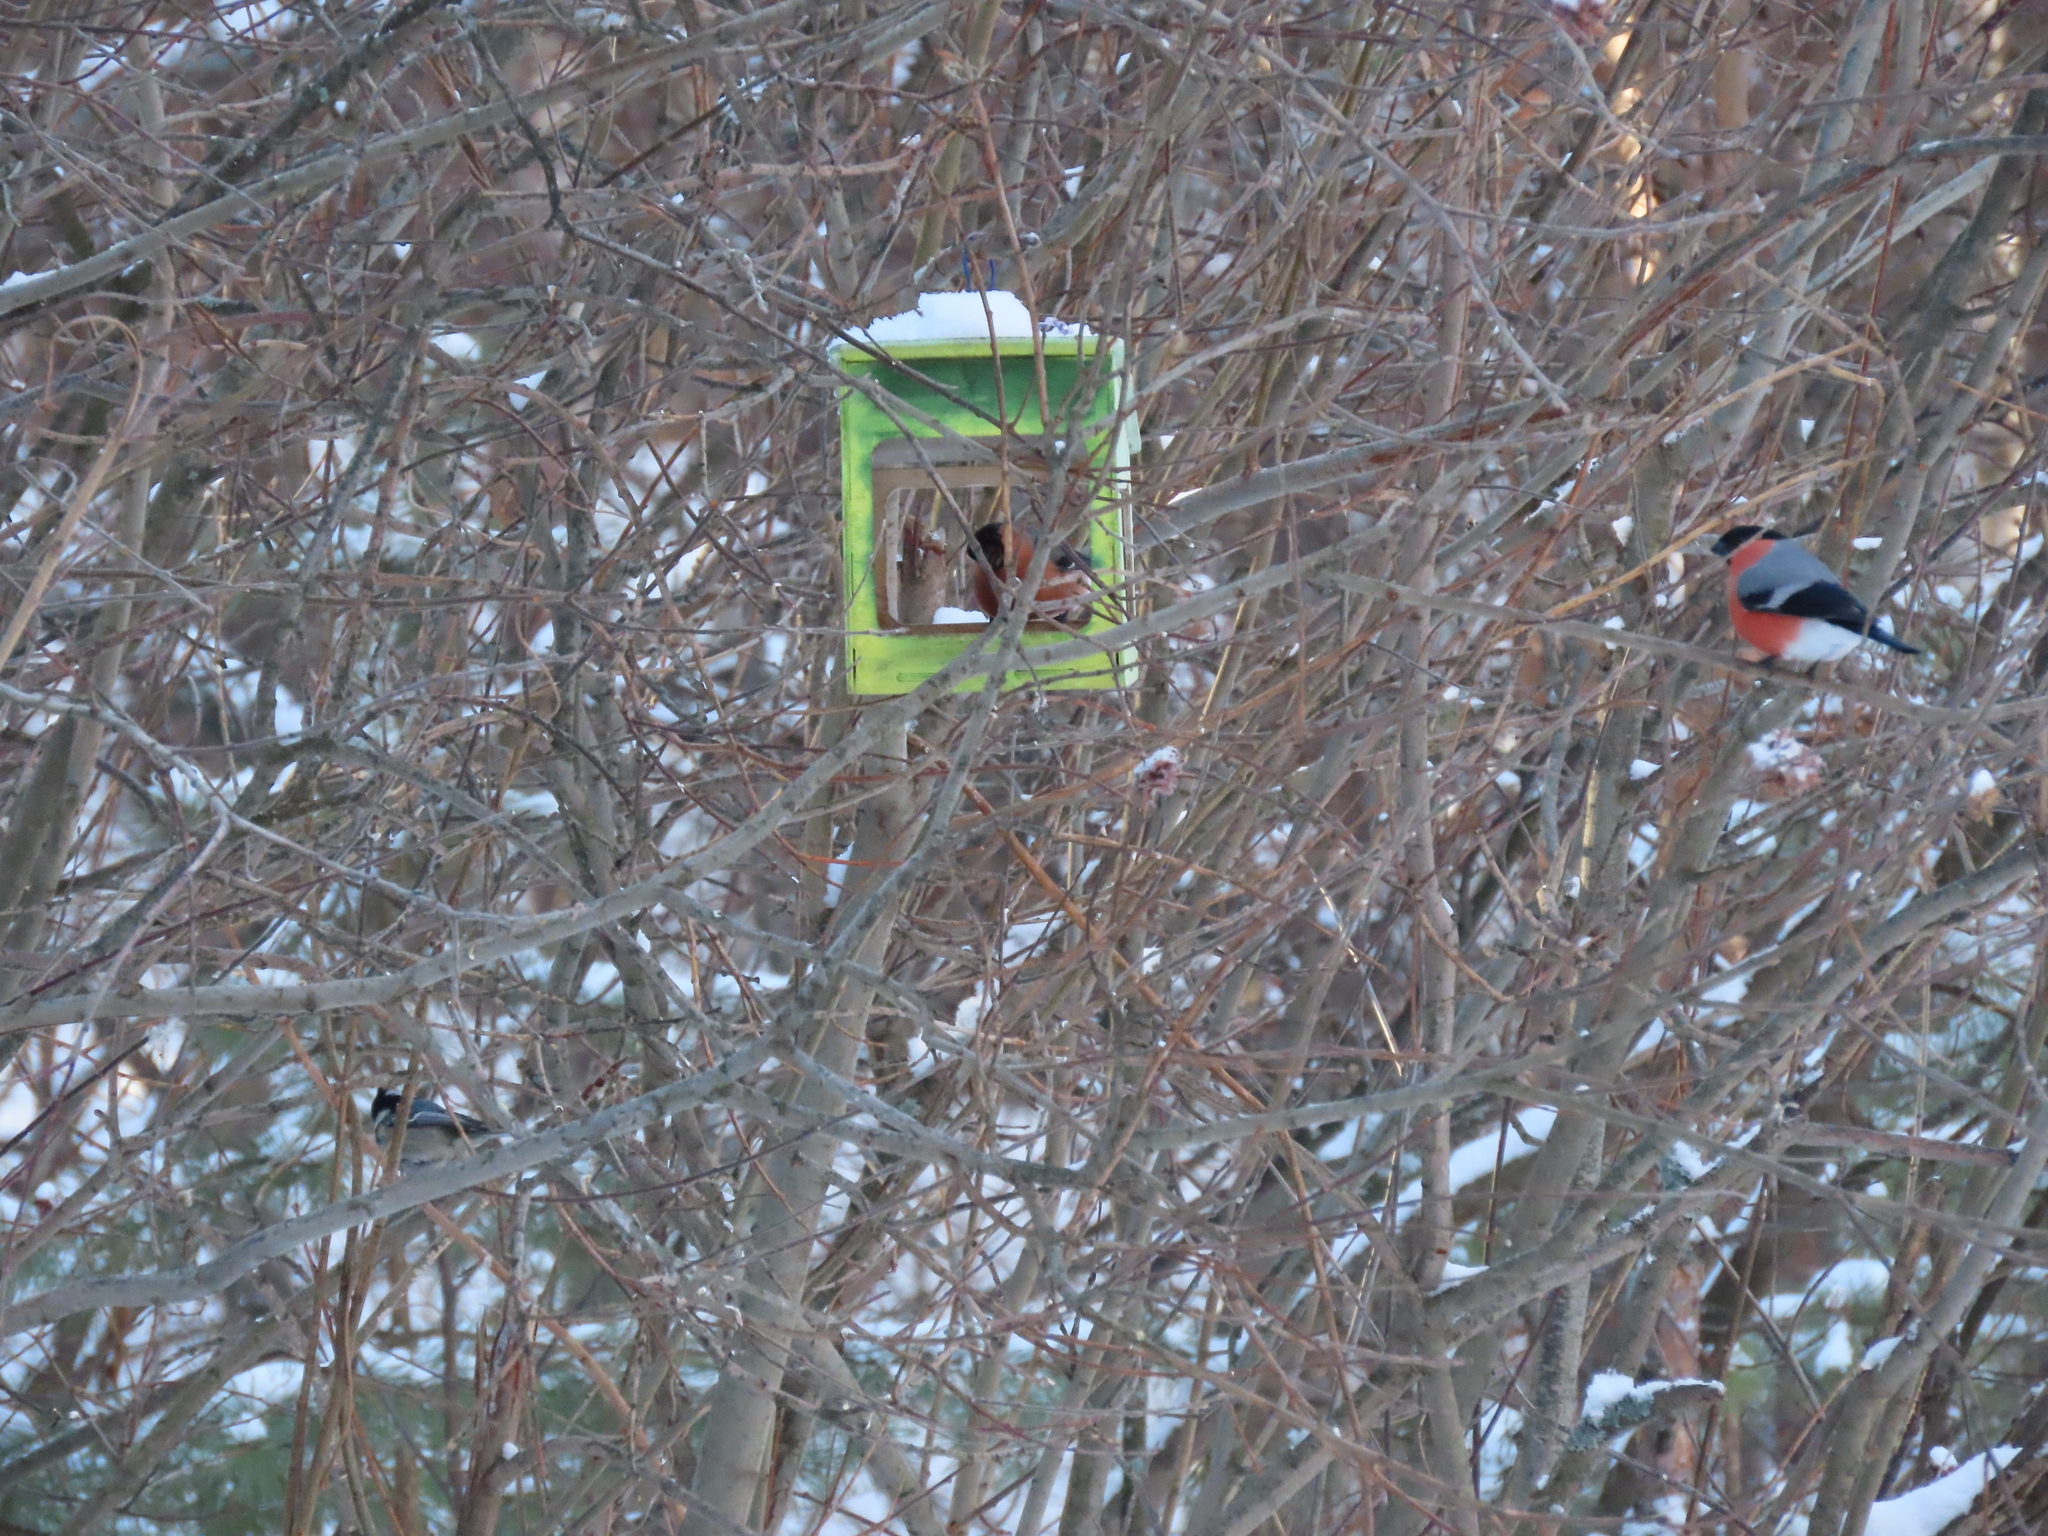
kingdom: Animalia
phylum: Chordata
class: Aves
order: Passeriformes
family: Fringillidae
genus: Pyrrhula
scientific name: Pyrrhula pyrrhula
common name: Eurasian bullfinch
